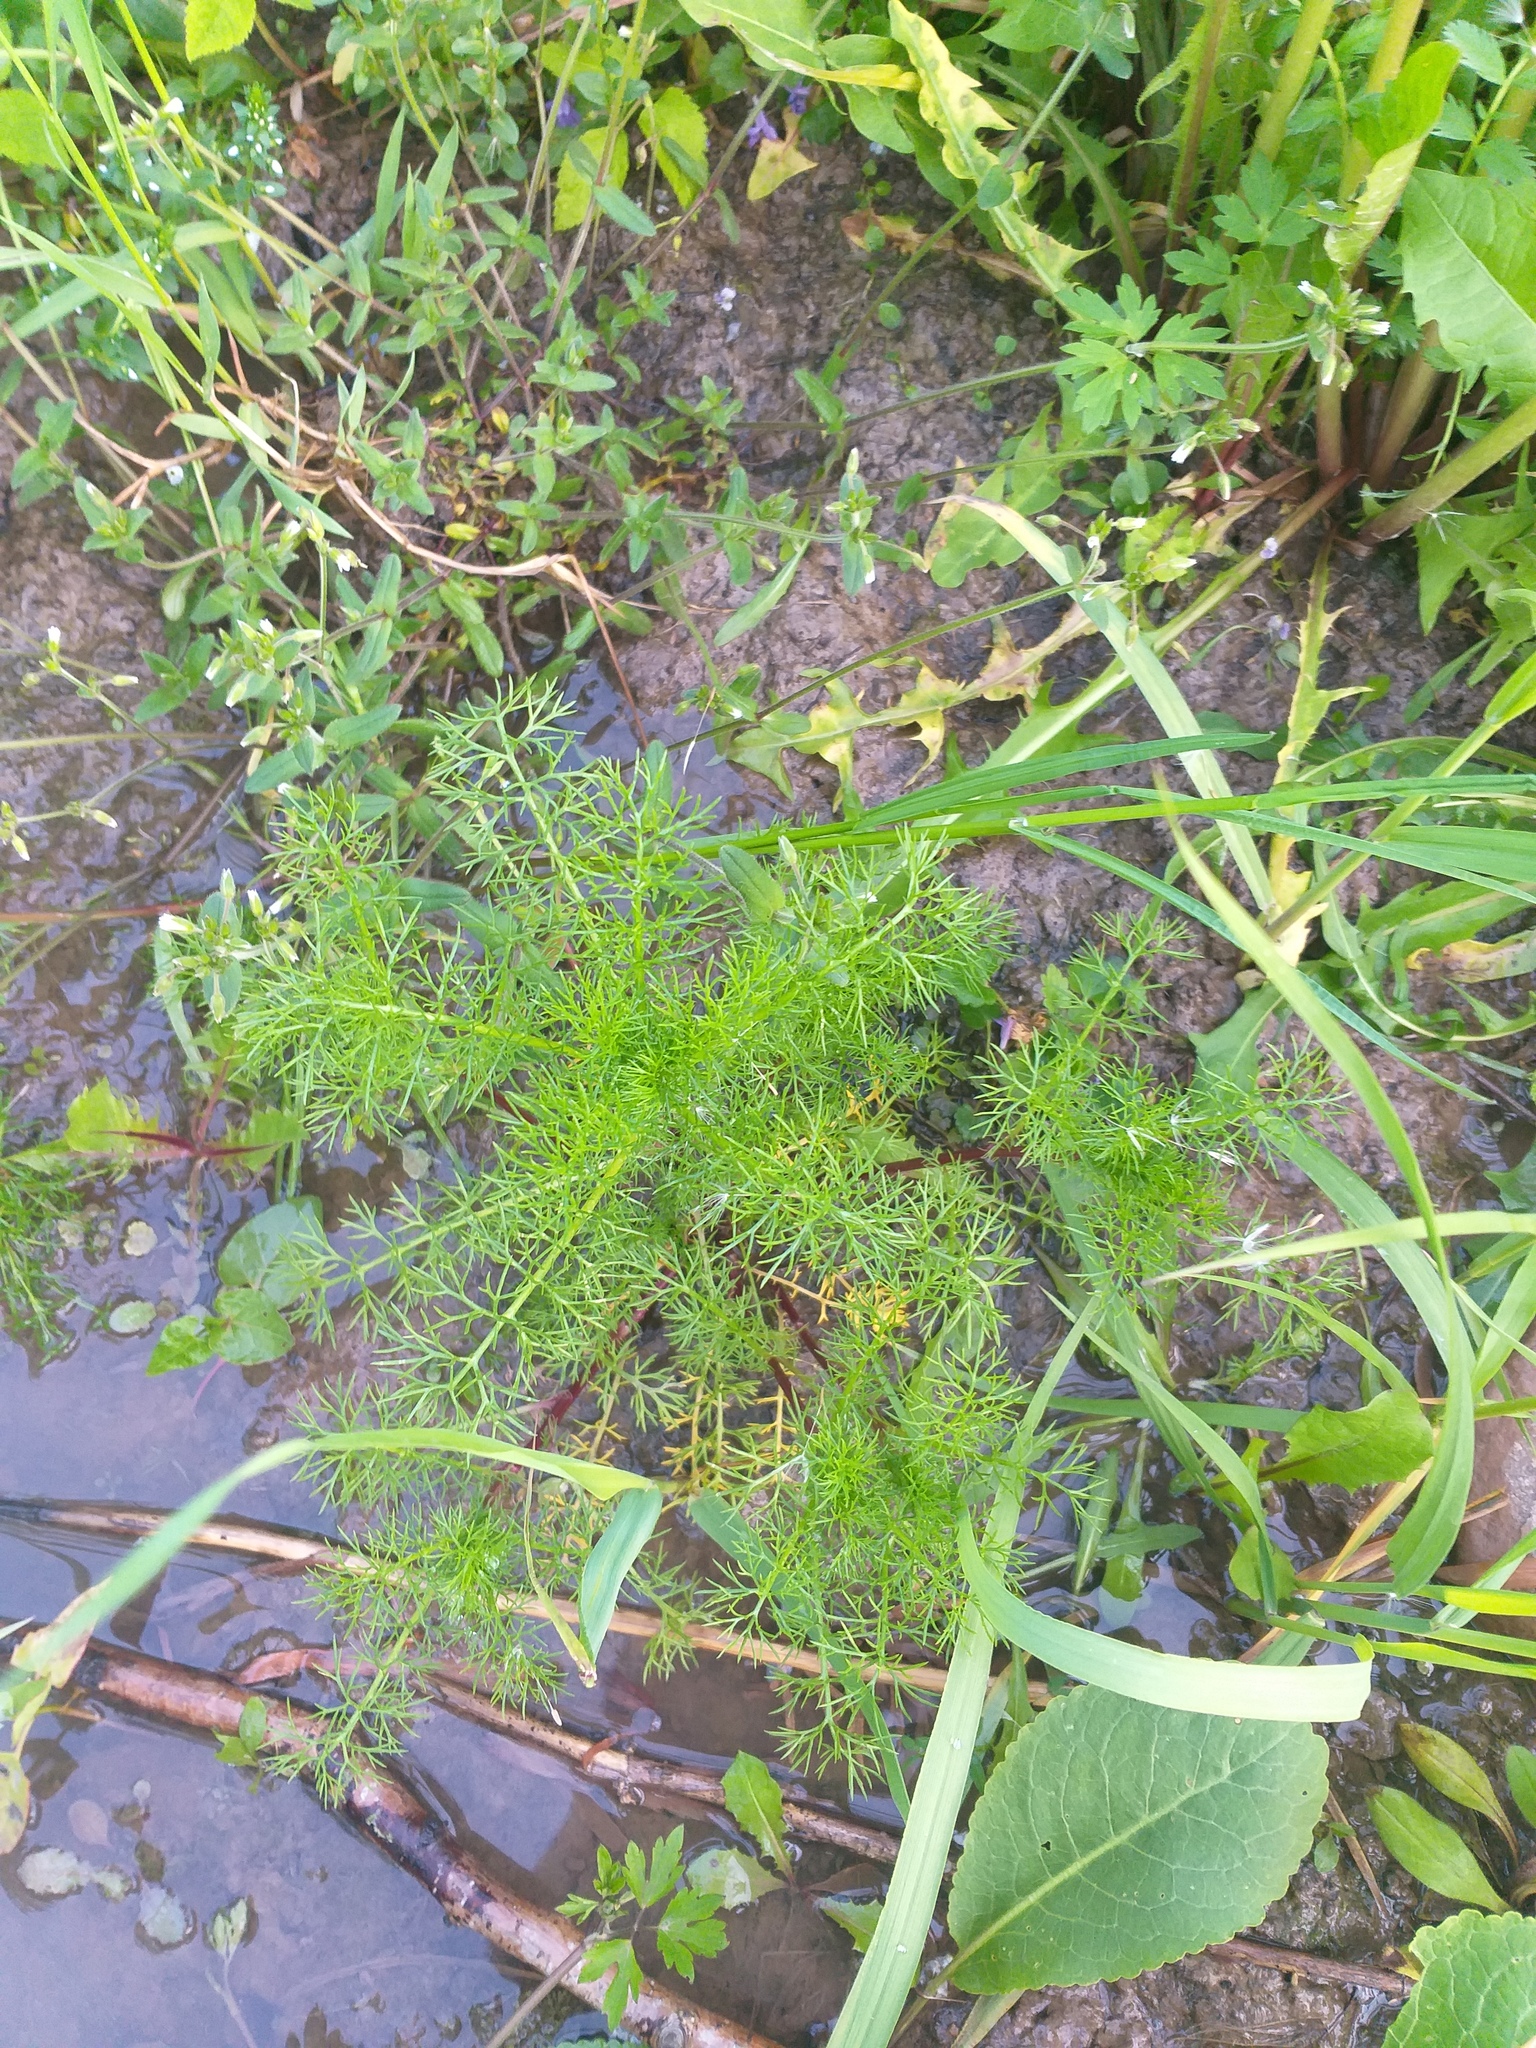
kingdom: Plantae
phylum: Tracheophyta
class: Magnoliopsida
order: Asterales
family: Asteraceae
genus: Tripleurospermum
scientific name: Tripleurospermum inodorum
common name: Scentless mayweed
